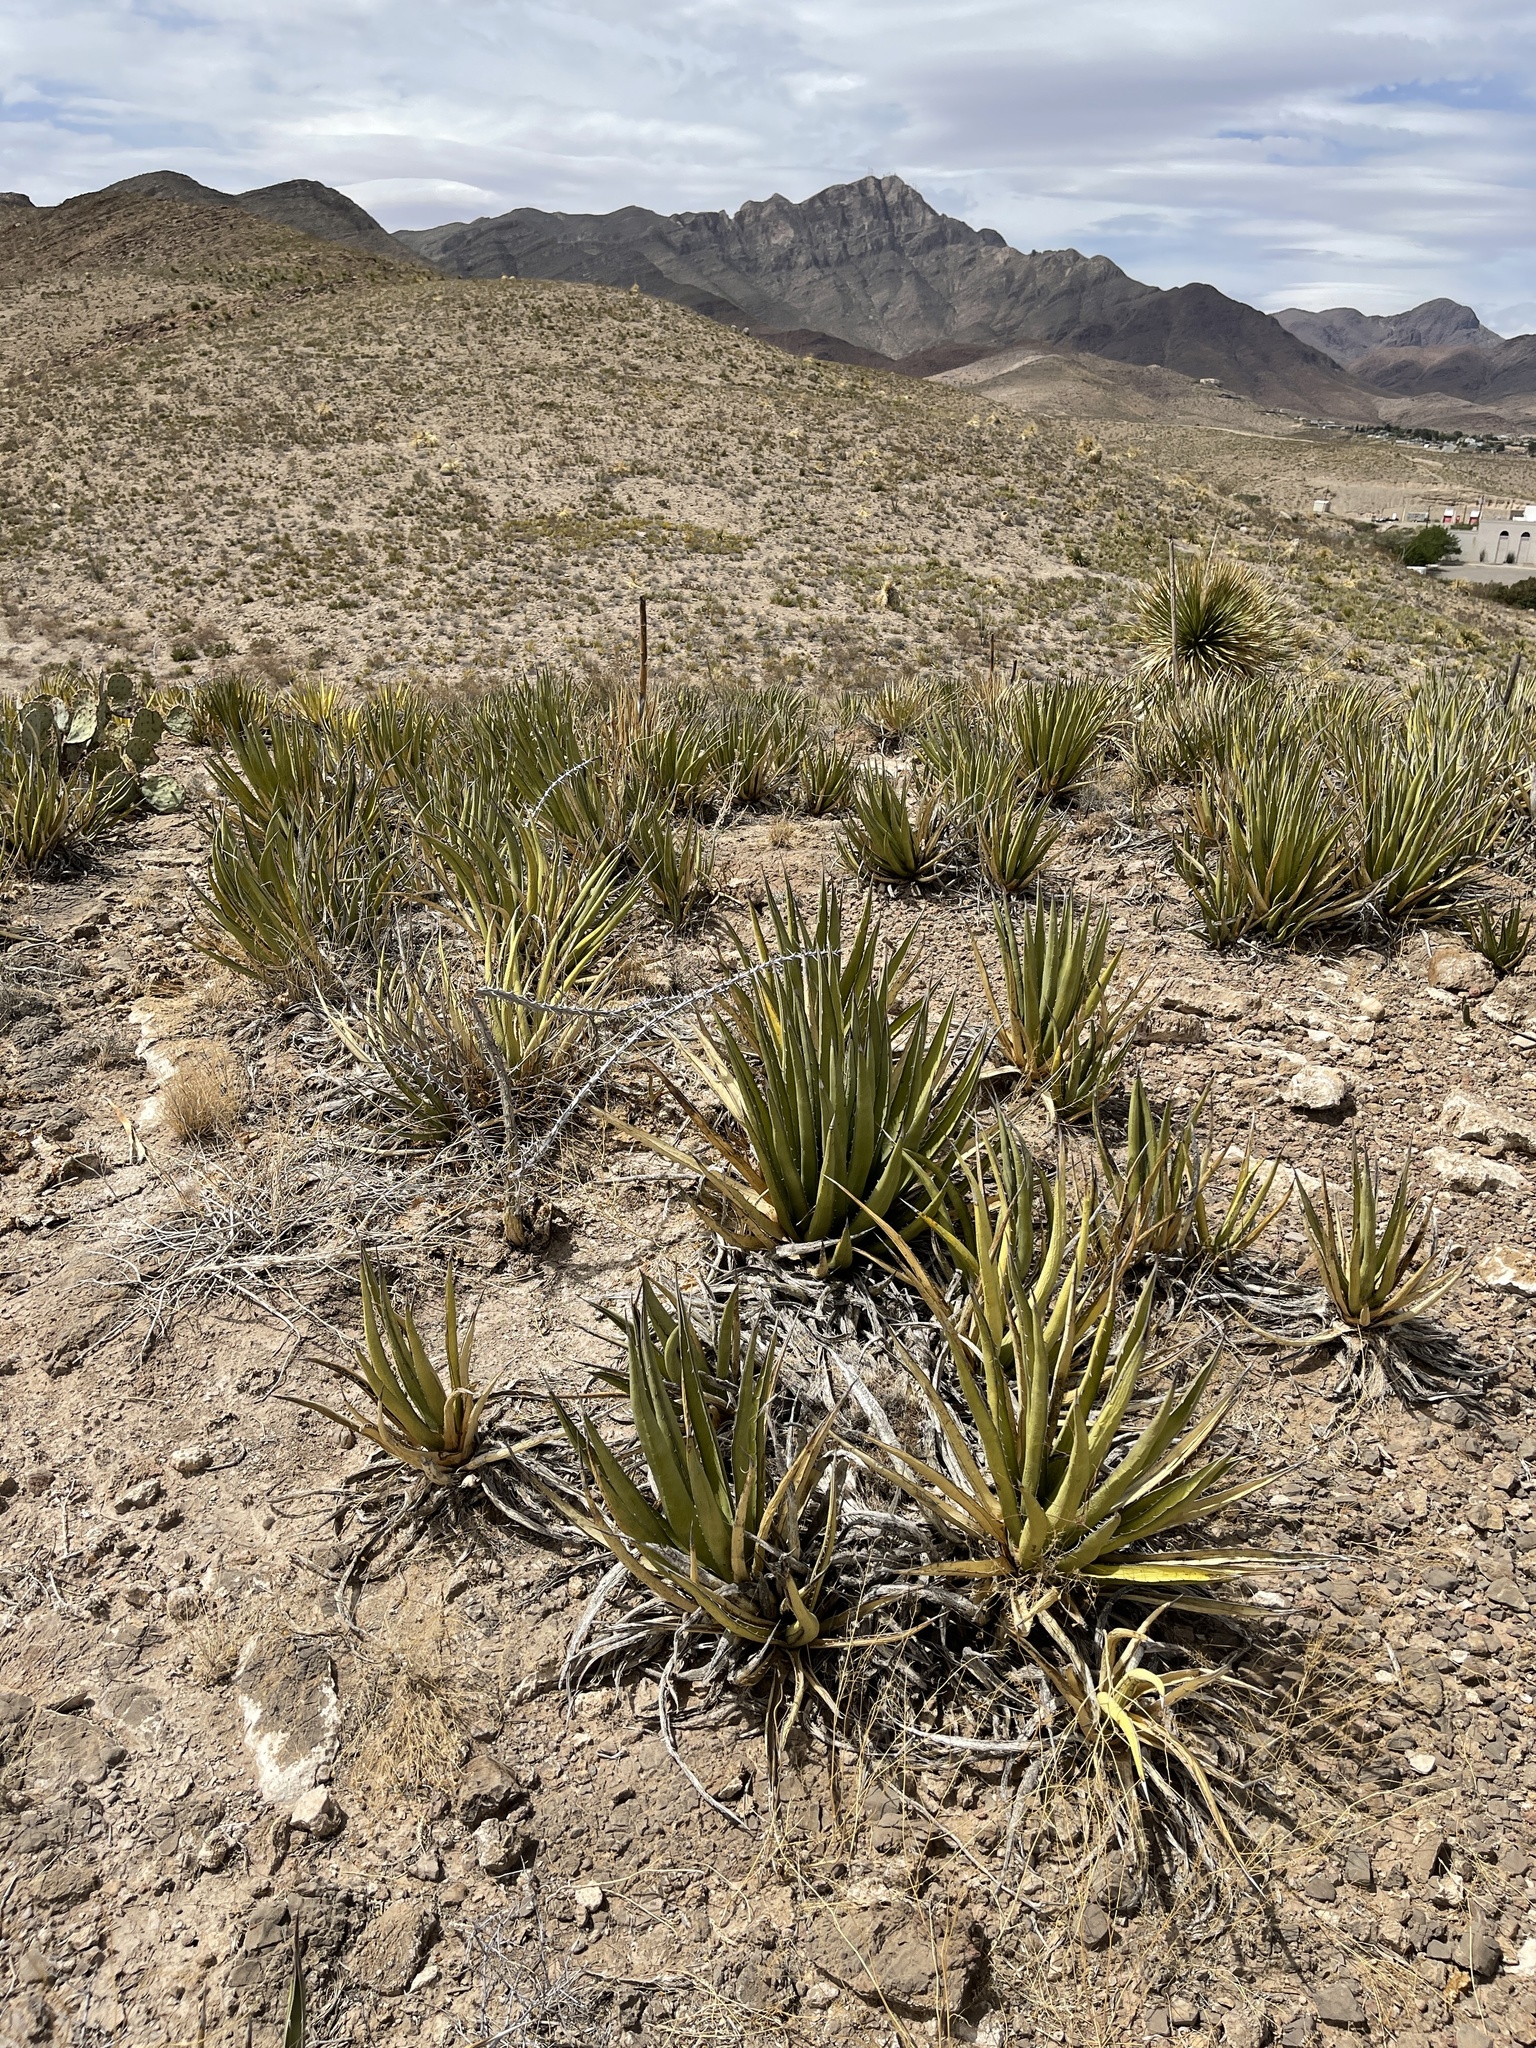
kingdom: Plantae
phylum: Tracheophyta
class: Liliopsida
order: Asparagales
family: Asparagaceae
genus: Agave
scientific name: Agave lechuguilla
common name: Lecheguilla agave
